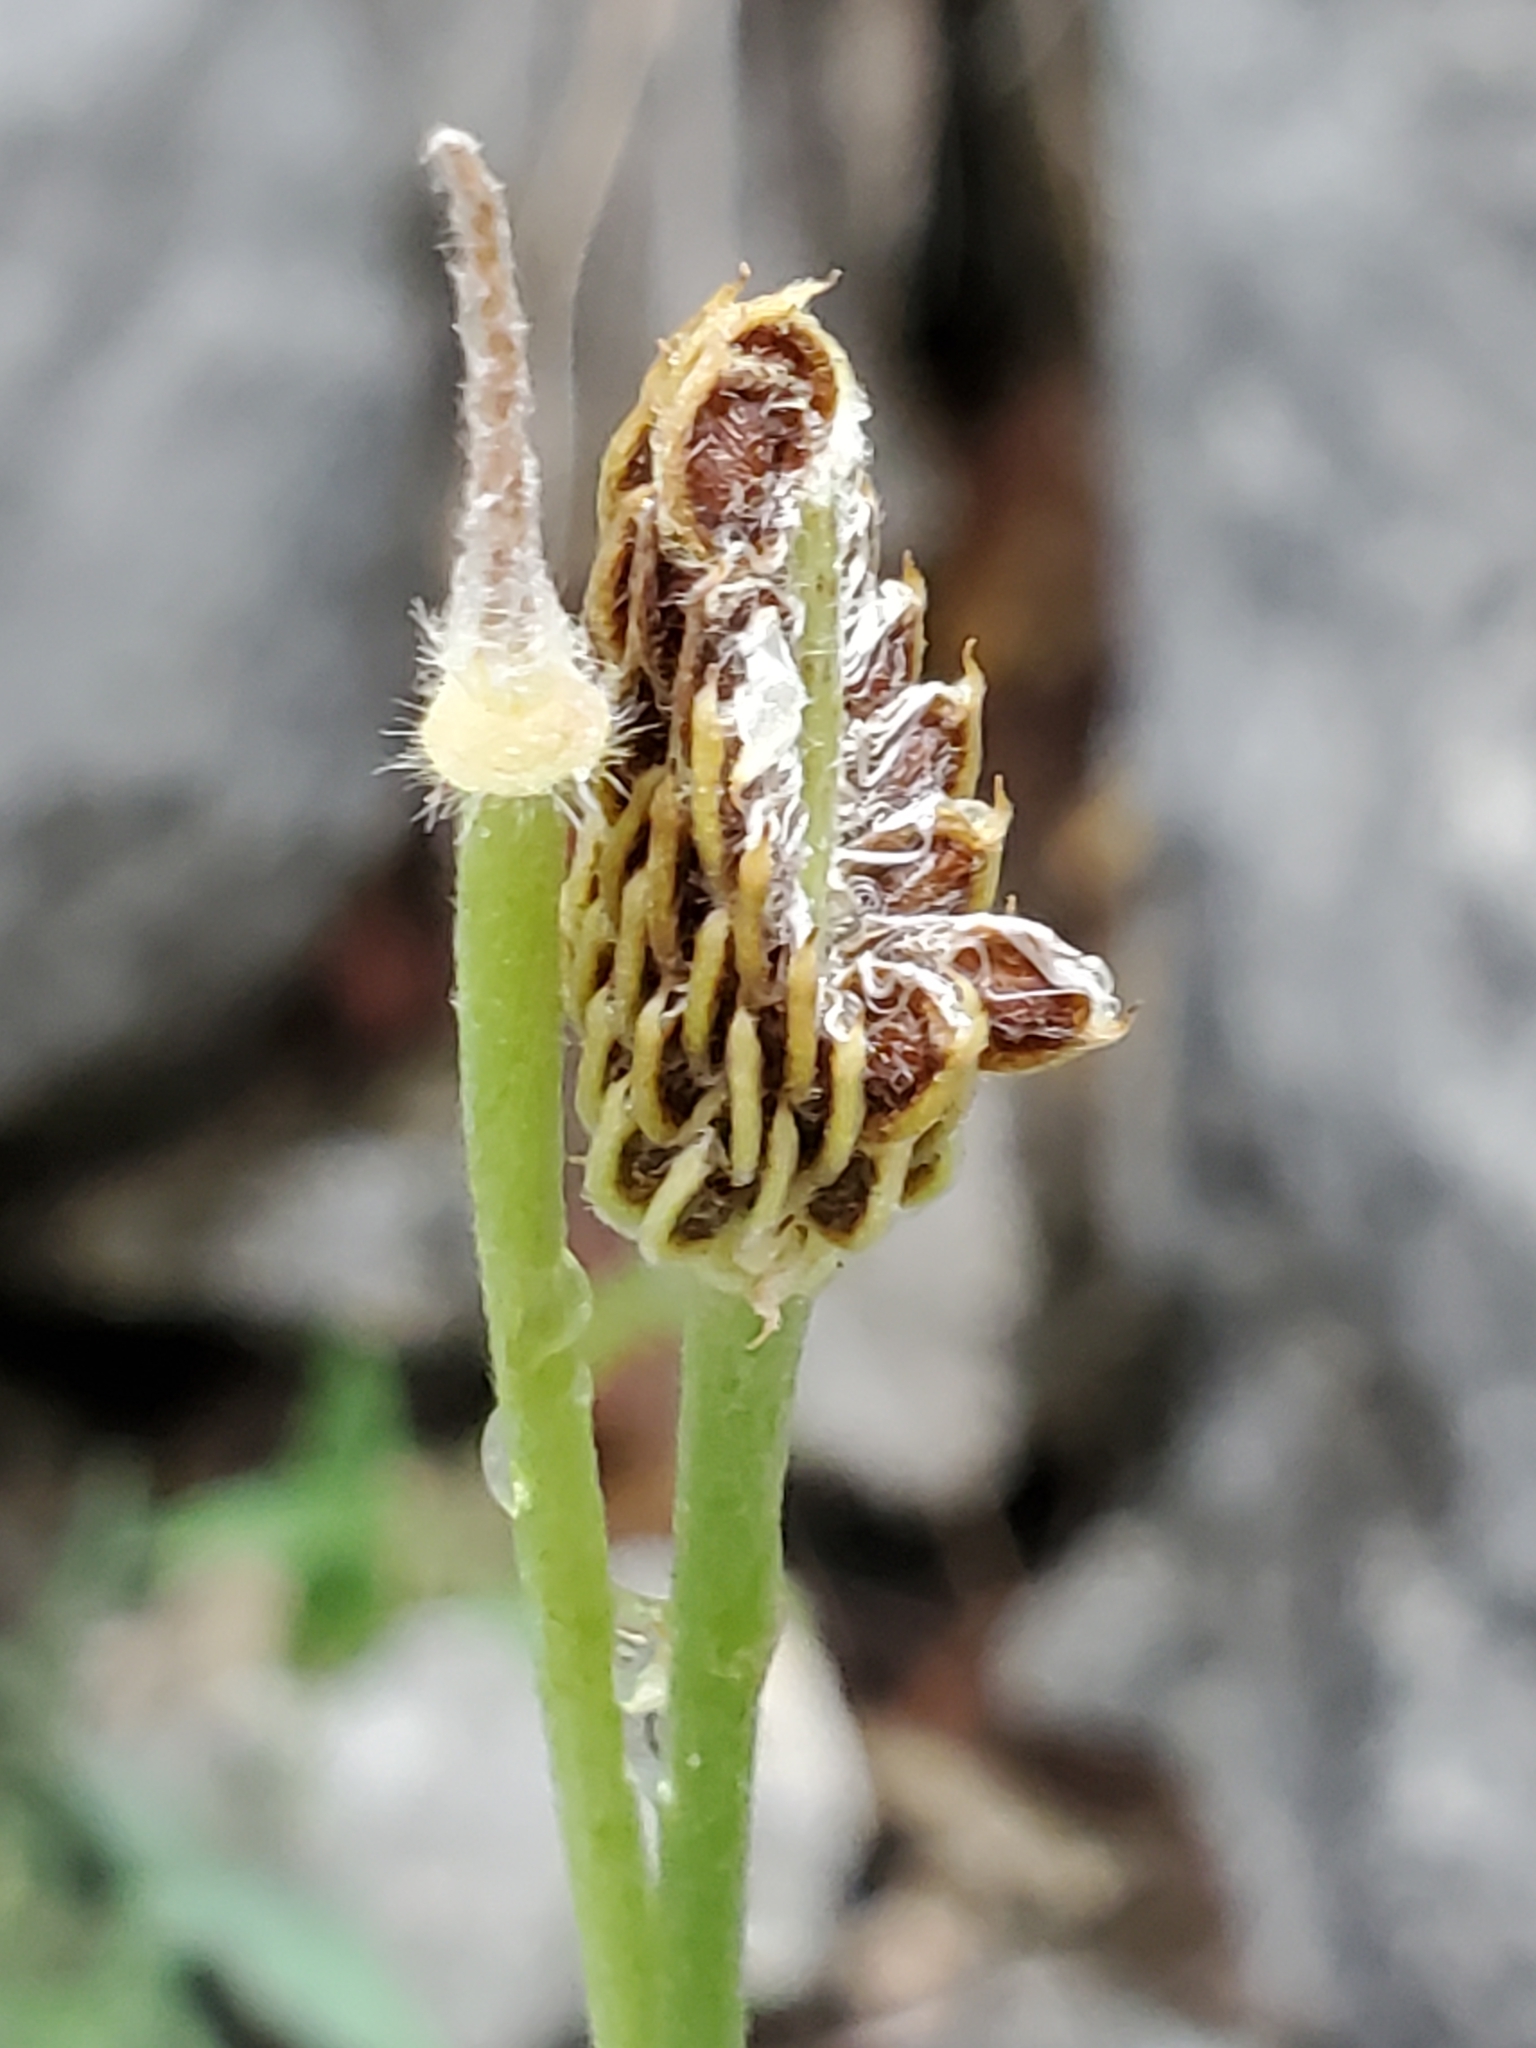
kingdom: Plantae
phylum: Tracheophyta
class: Magnoliopsida
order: Ranunculales
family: Ranunculaceae
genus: Anemone
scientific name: Anemone edwardsiana
